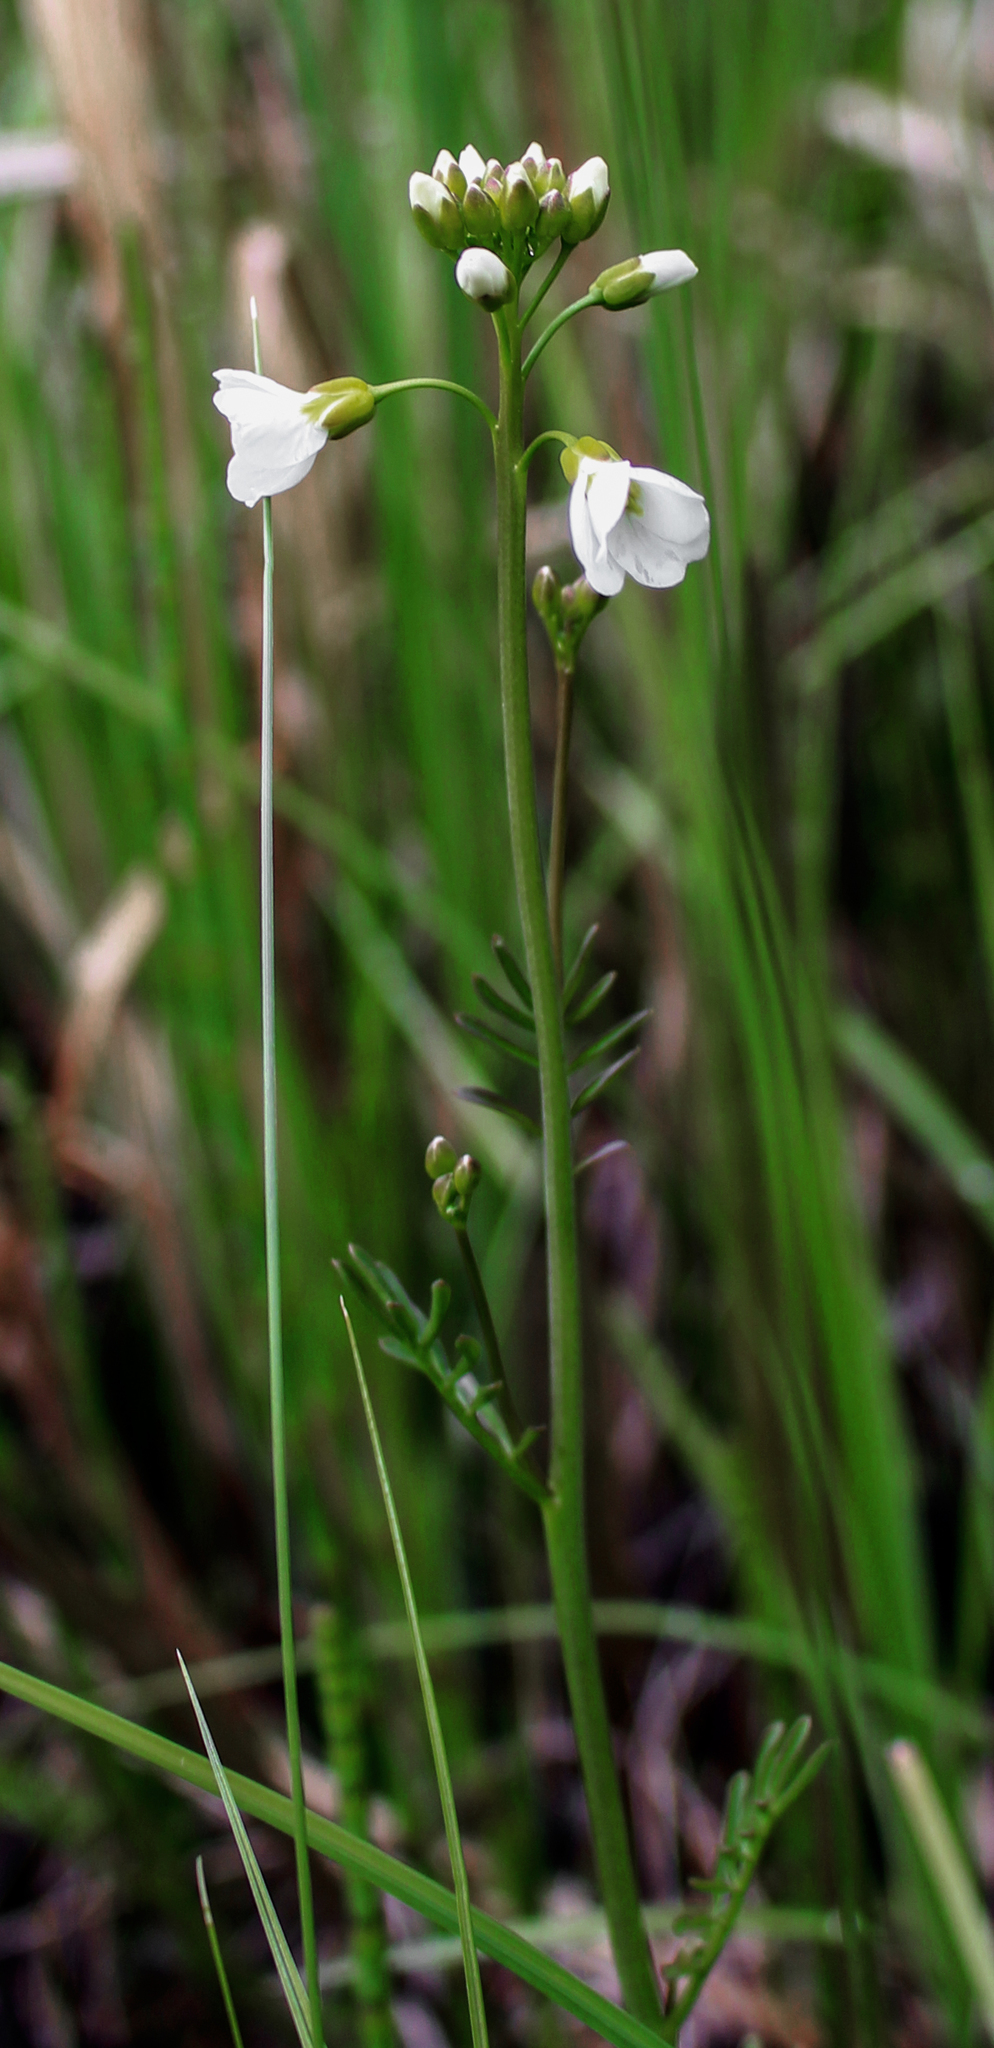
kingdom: Plantae
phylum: Tracheophyta
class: Magnoliopsida
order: Brassicales
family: Brassicaceae
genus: Cardamine
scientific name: Cardamine pratensis
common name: Cuckoo flower
